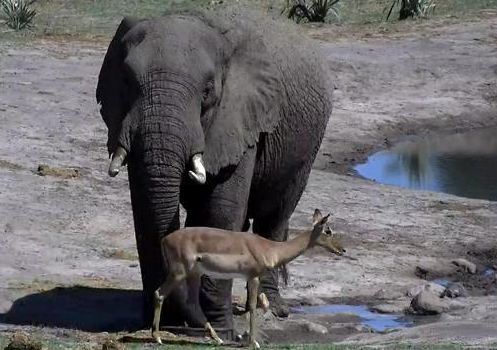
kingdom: Animalia
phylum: Chordata
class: Mammalia
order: Proboscidea
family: Elephantidae
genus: Loxodonta
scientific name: Loxodonta africana
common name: African elephant
